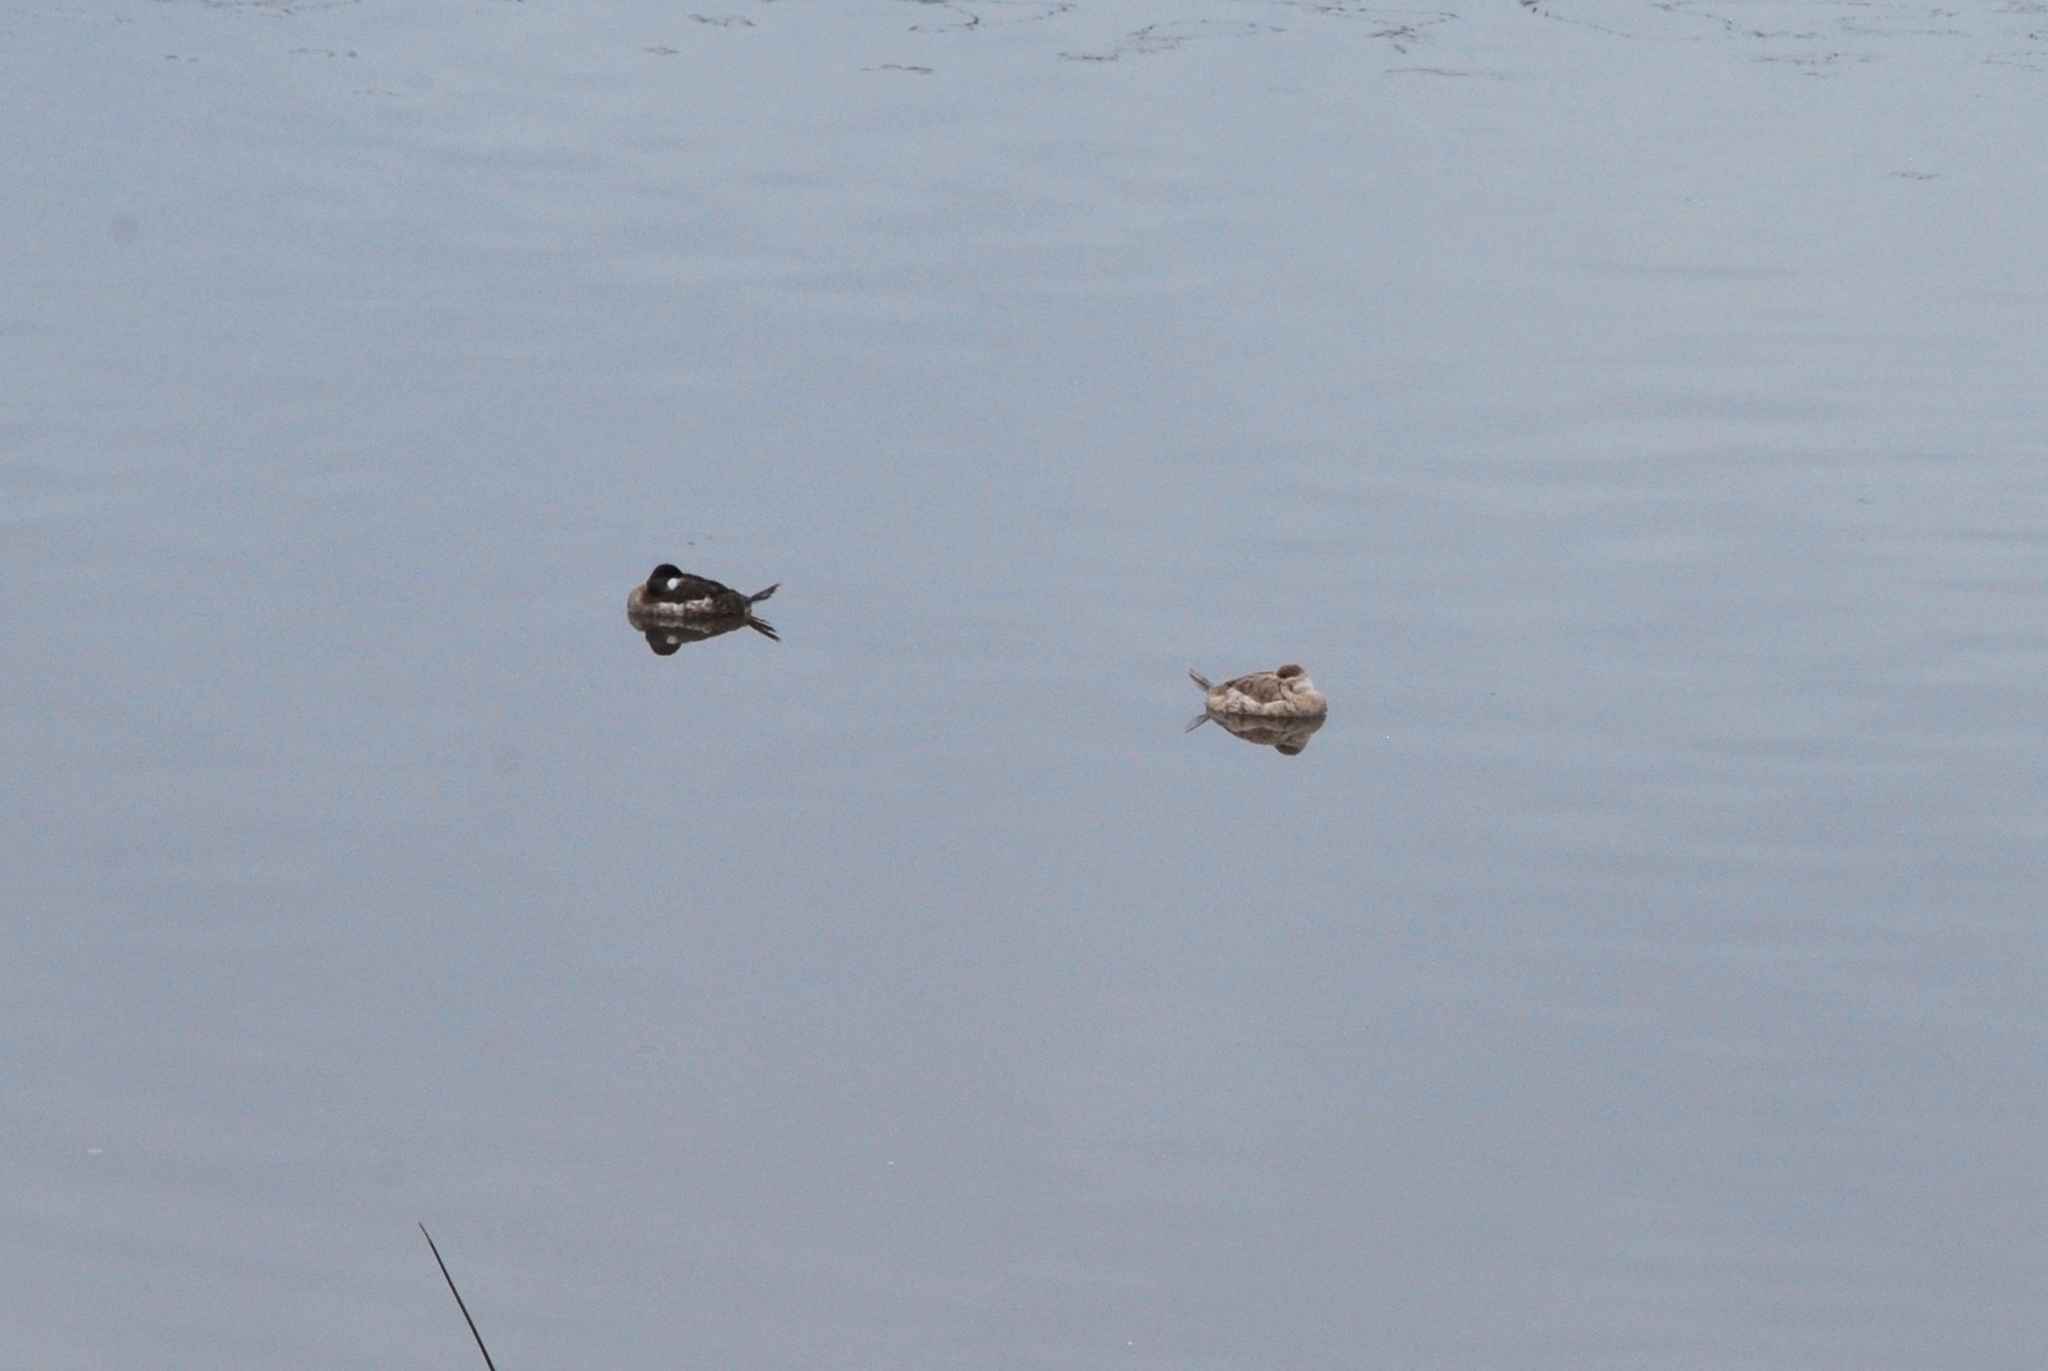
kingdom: Animalia
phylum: Chordata
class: Aves
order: Anseriformes
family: Anatidae
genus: Oxyura
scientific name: Oxyura jamaicensis
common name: Ruddy duck
